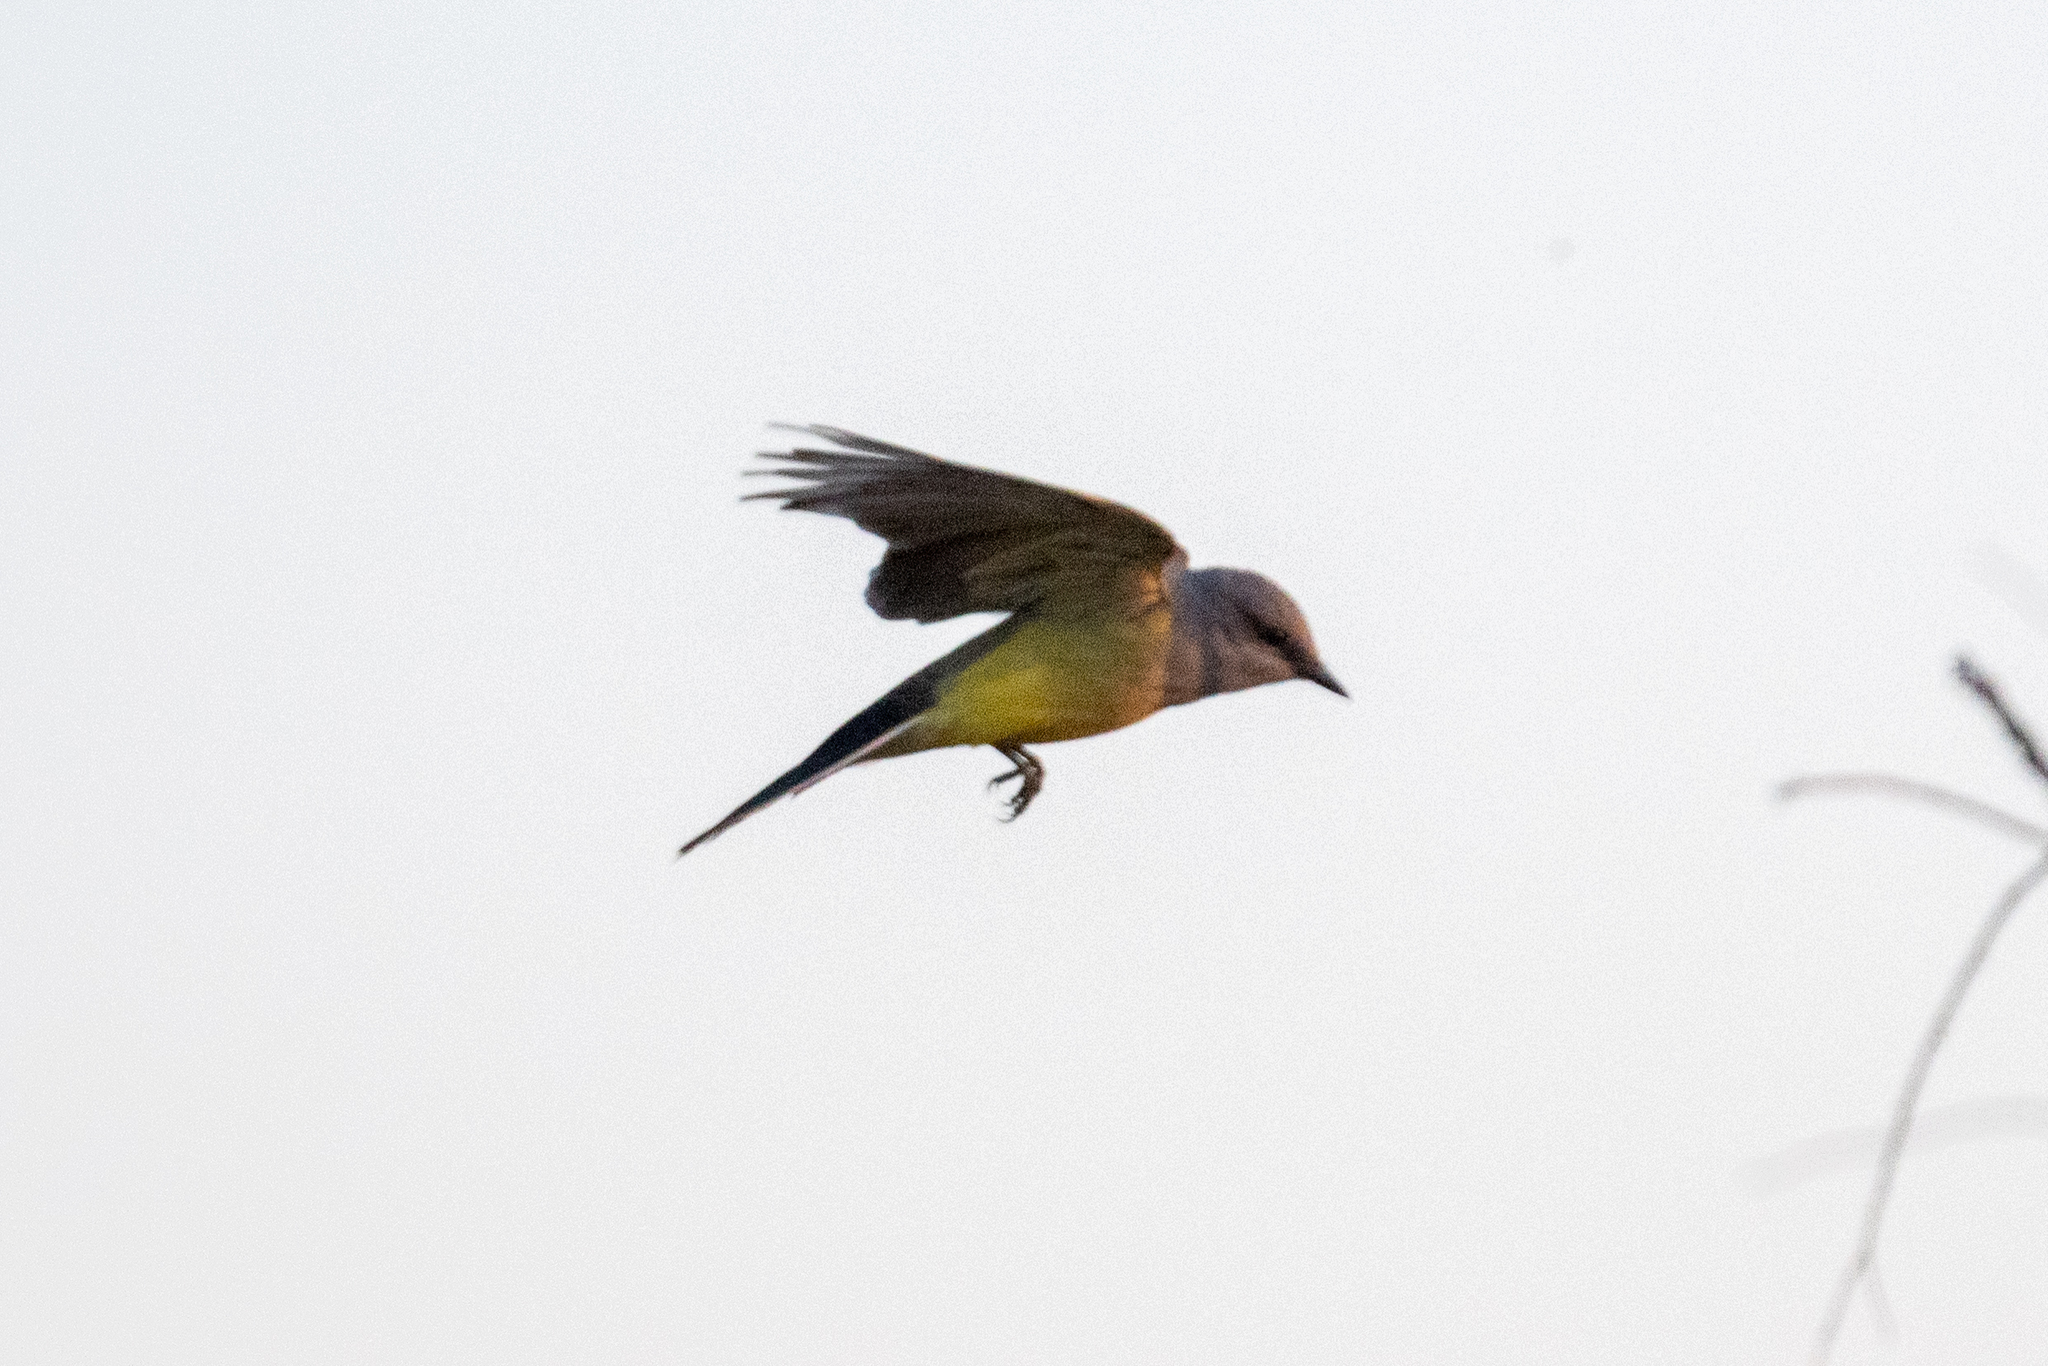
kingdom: Animalia
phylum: Chordata
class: Aves
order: Passeriformes
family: Tyrannidae
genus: Tyrannus
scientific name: Tyrannus verticalis
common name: Western kingbird
